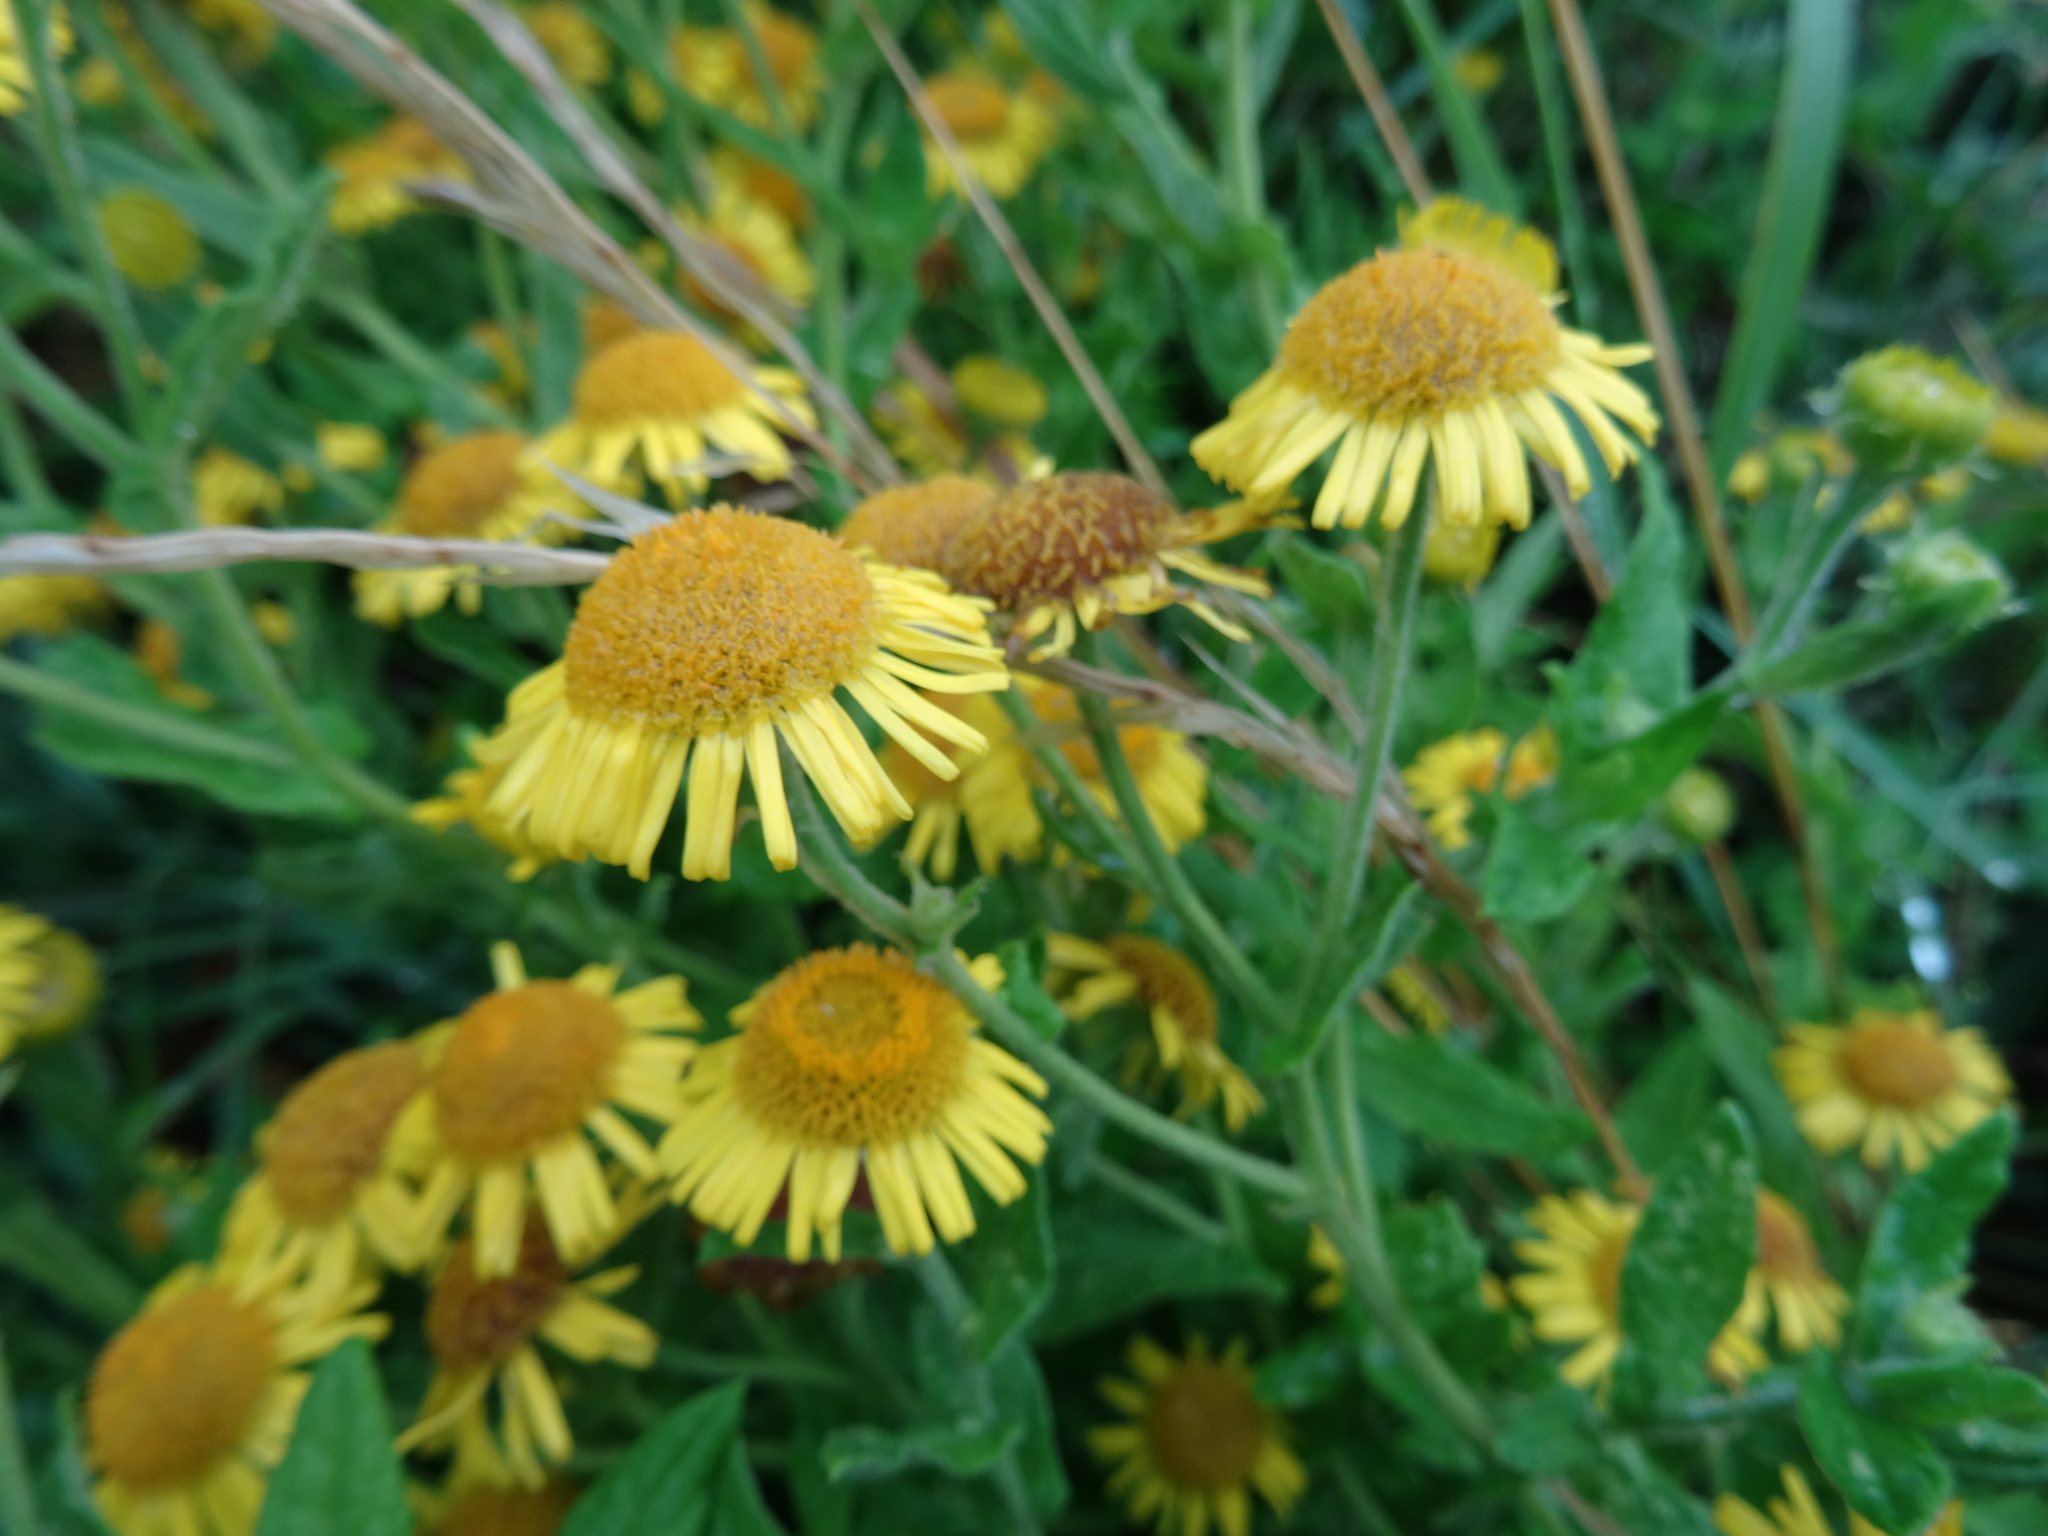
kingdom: Plantae
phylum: Tracheophyta
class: Magnoliopsida
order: Asterales
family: Asteraceae
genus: Pulicaria
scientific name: Pulicaria dysenterica
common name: Common fleabane
